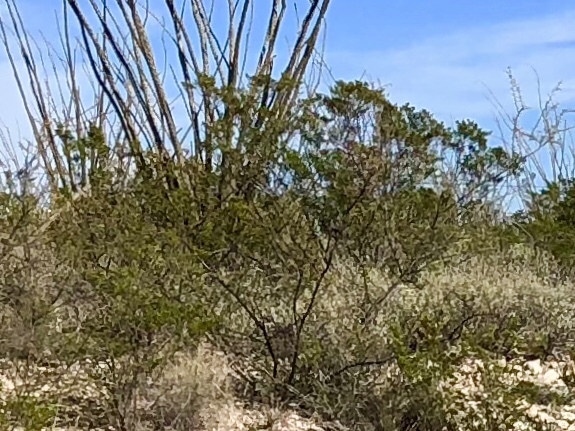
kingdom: Plantae
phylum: Tracheophyta
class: Magnoliopsida
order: Zygophyllales
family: Zygophyllaceae
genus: Larrea
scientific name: Larrea tridentata
